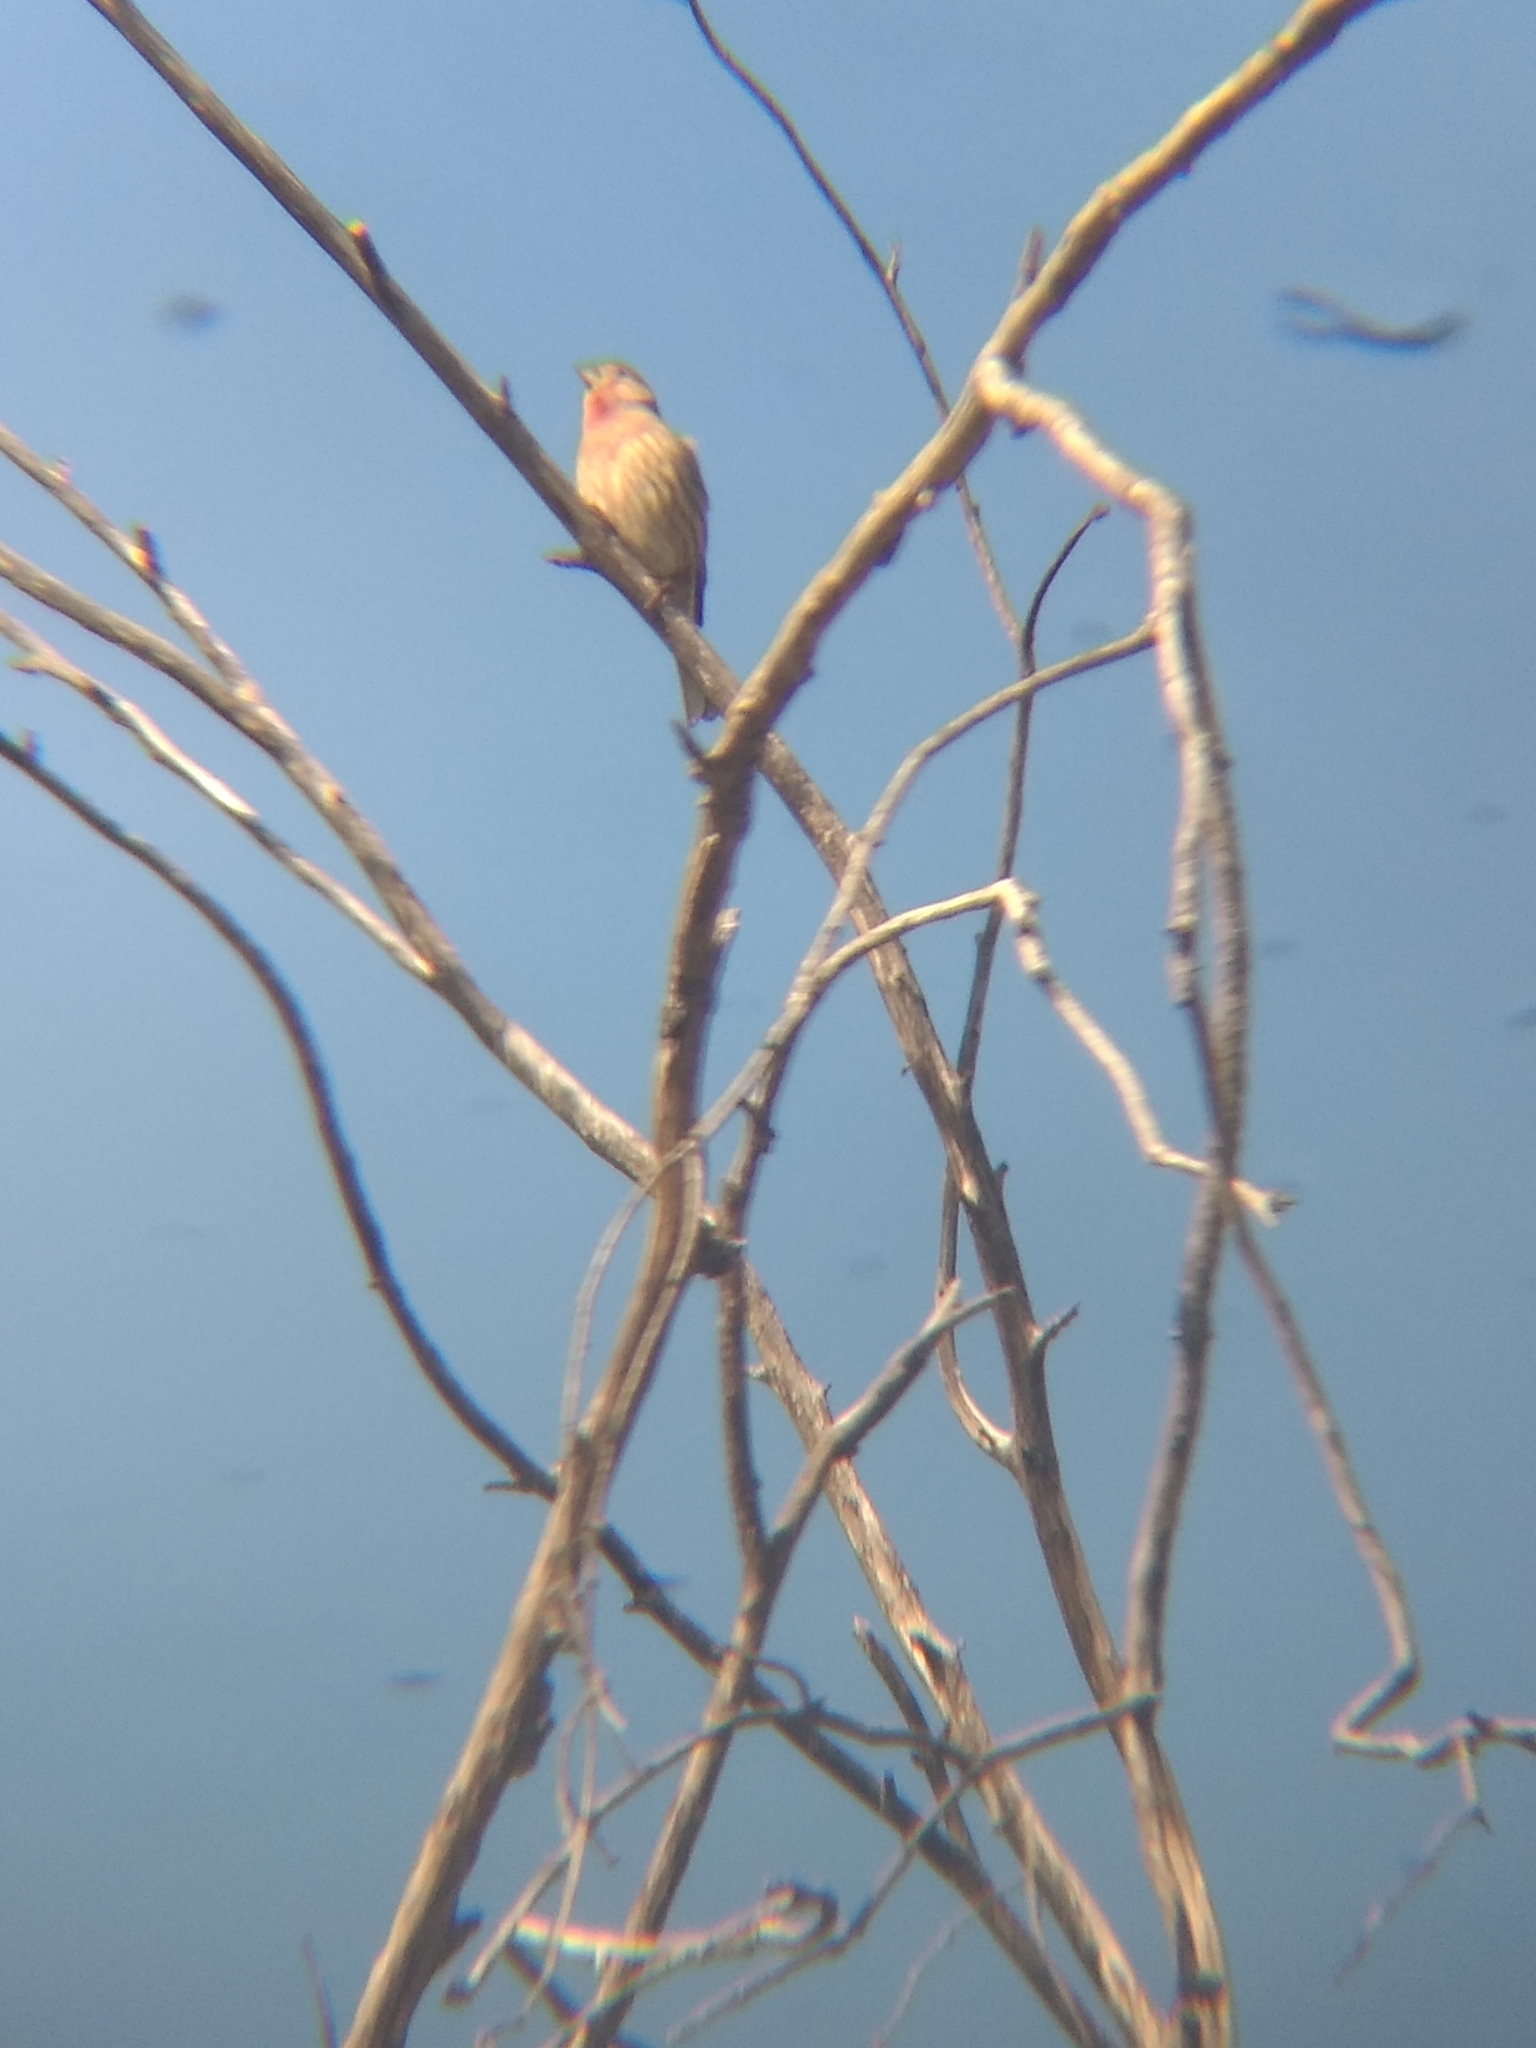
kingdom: Animalia
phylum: Chordata
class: Aves
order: Passeriformes
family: Fringillidae
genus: Haemorhous
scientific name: Haemorhous mexicanus
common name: House finch
